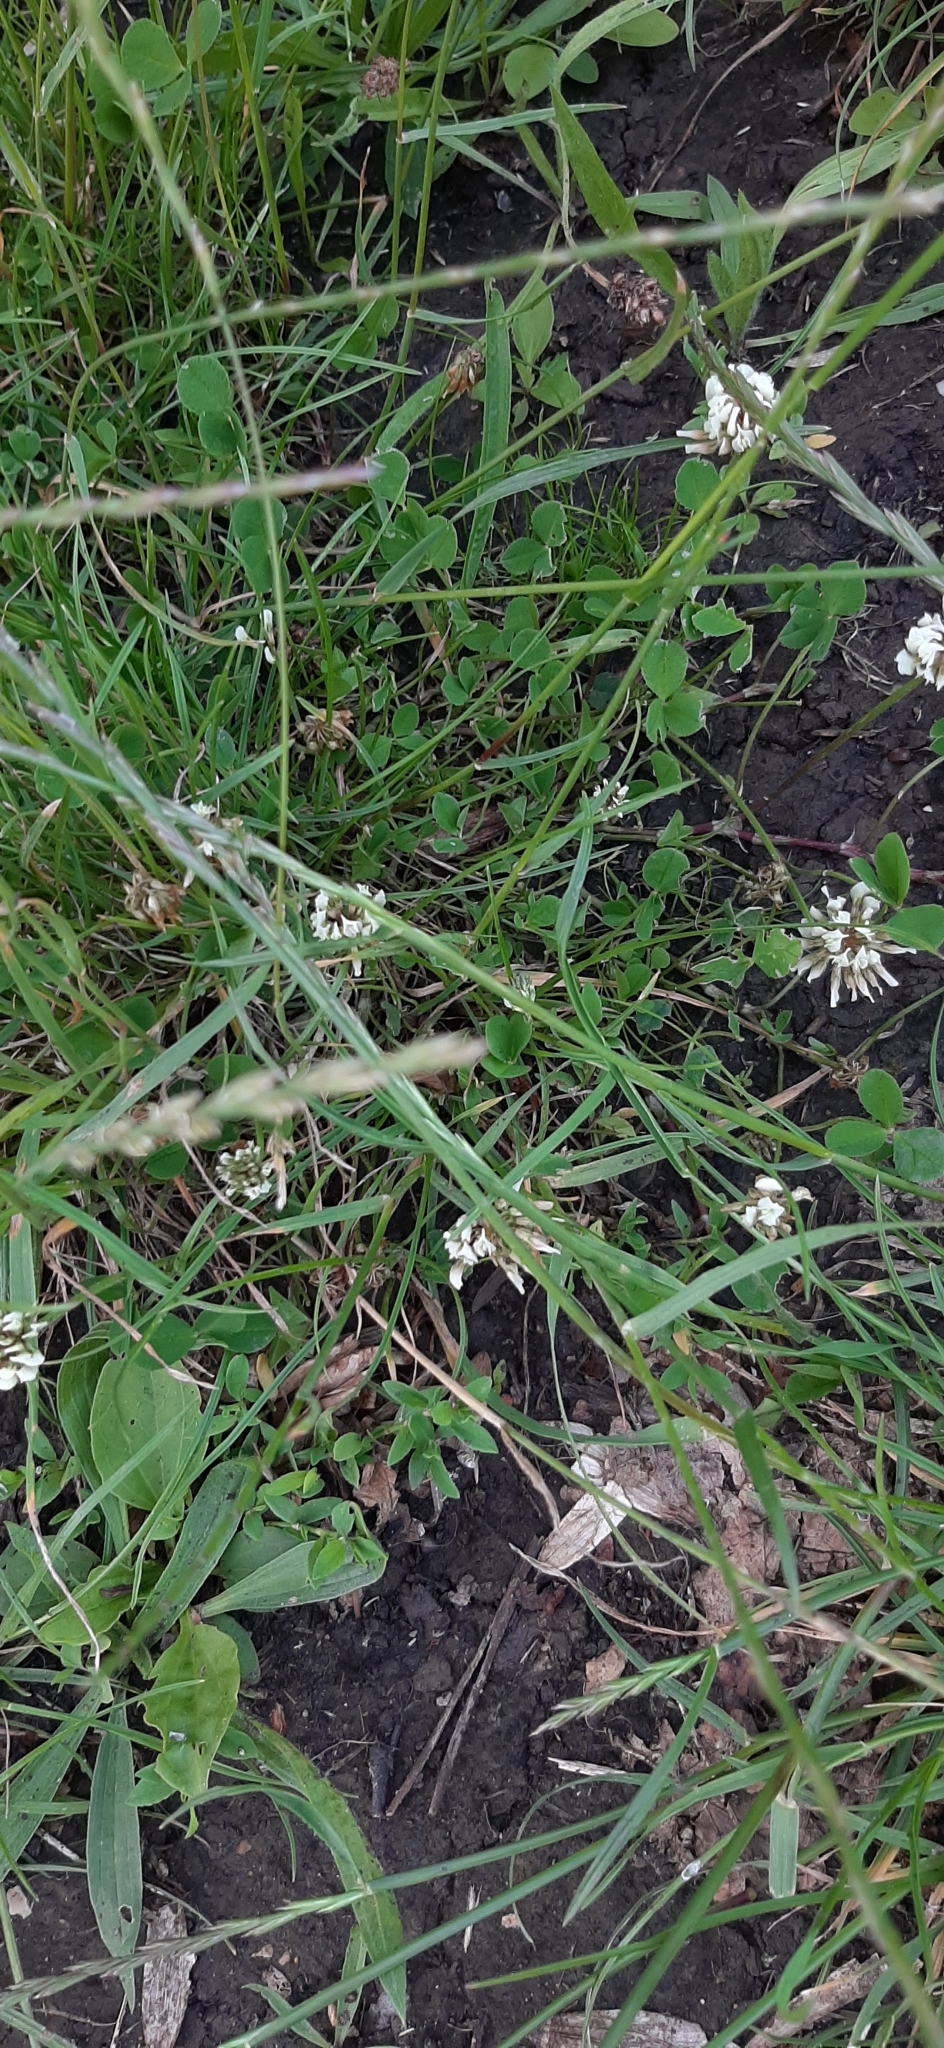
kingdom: Plantae
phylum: Tracheophyta
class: Magnoliopsida
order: Fabales
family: Fabaceae
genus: Trifolium
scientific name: Trifolium repens
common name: White clover
